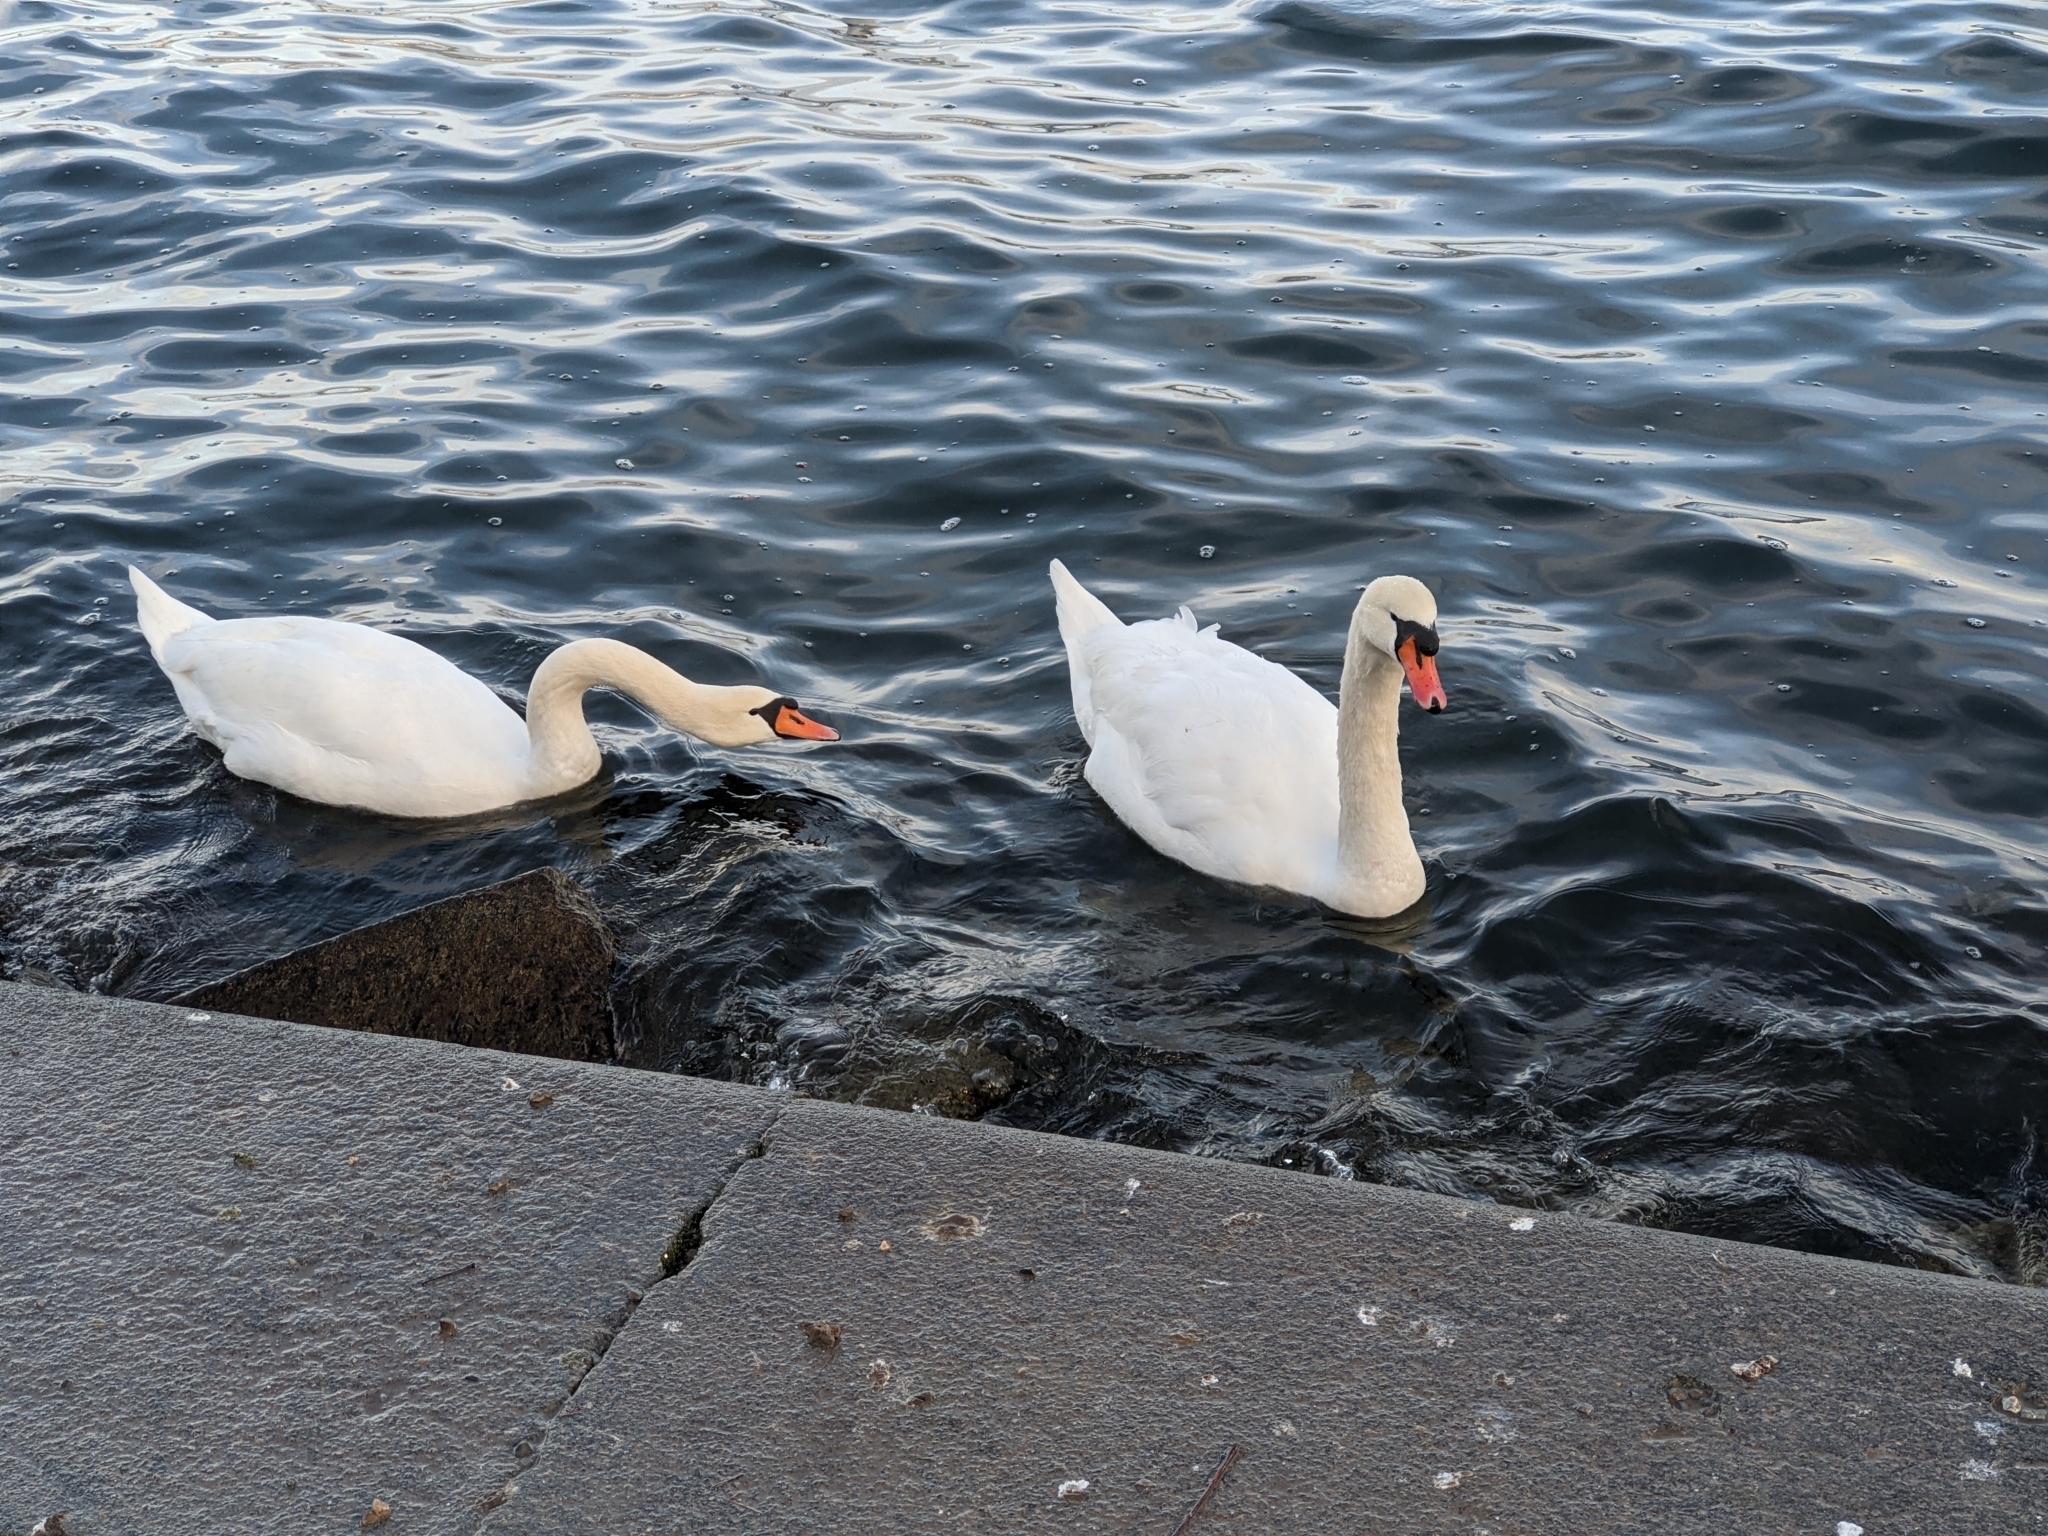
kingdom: Animalia
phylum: Chordata
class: Aves
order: Anseriformes
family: Anatidae
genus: Cygnus
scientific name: Cygnus olor
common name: Mute swan
